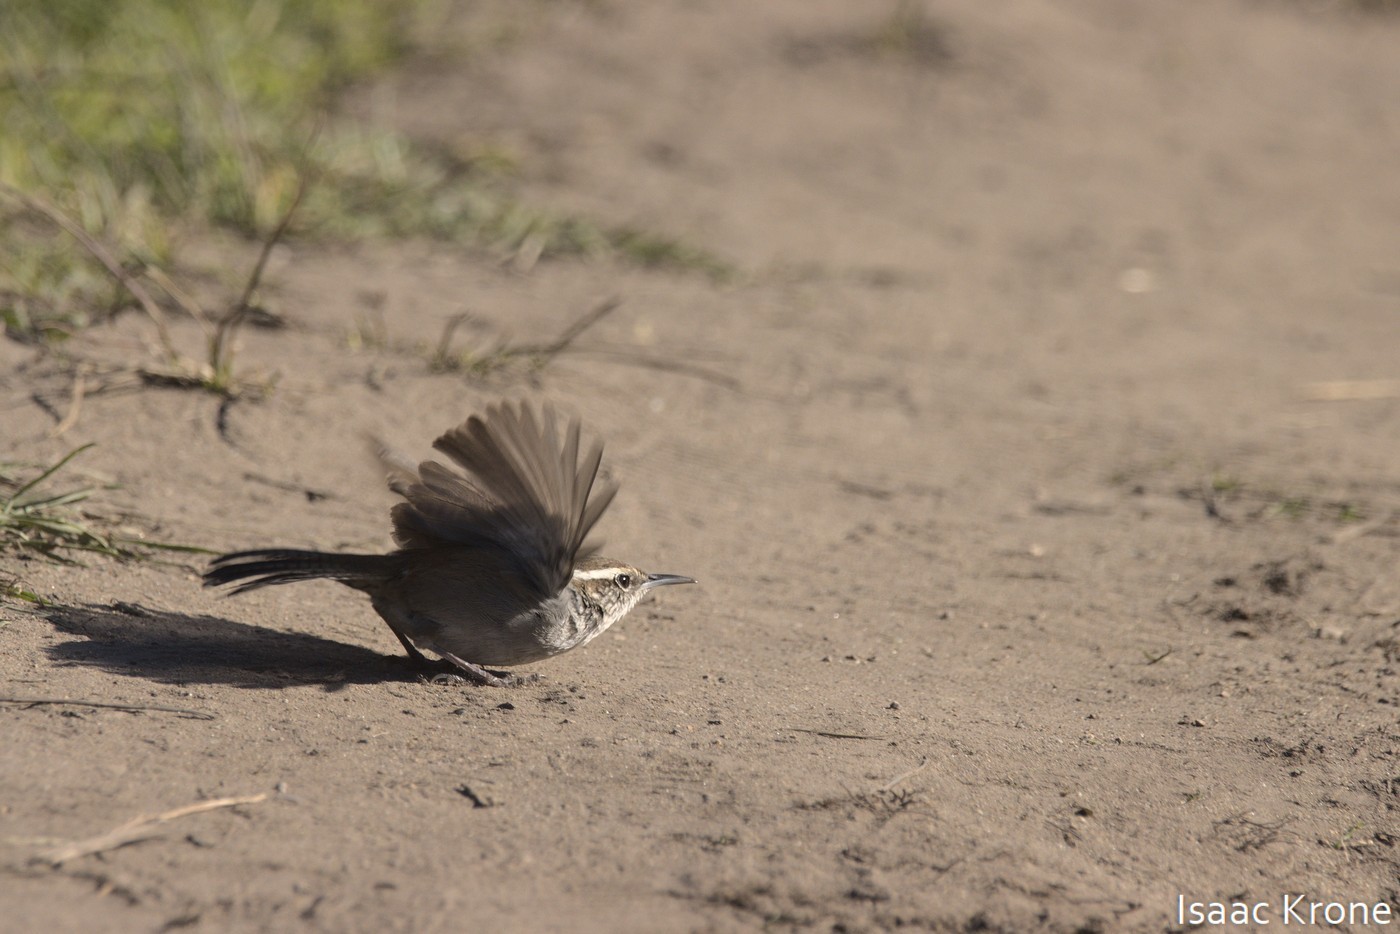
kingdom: Animalia
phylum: Chordata
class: Aves
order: Passeriformes
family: Troglodytidae
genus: Thryomanes
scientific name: Thryomanes bewickii
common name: Bewick's wren
